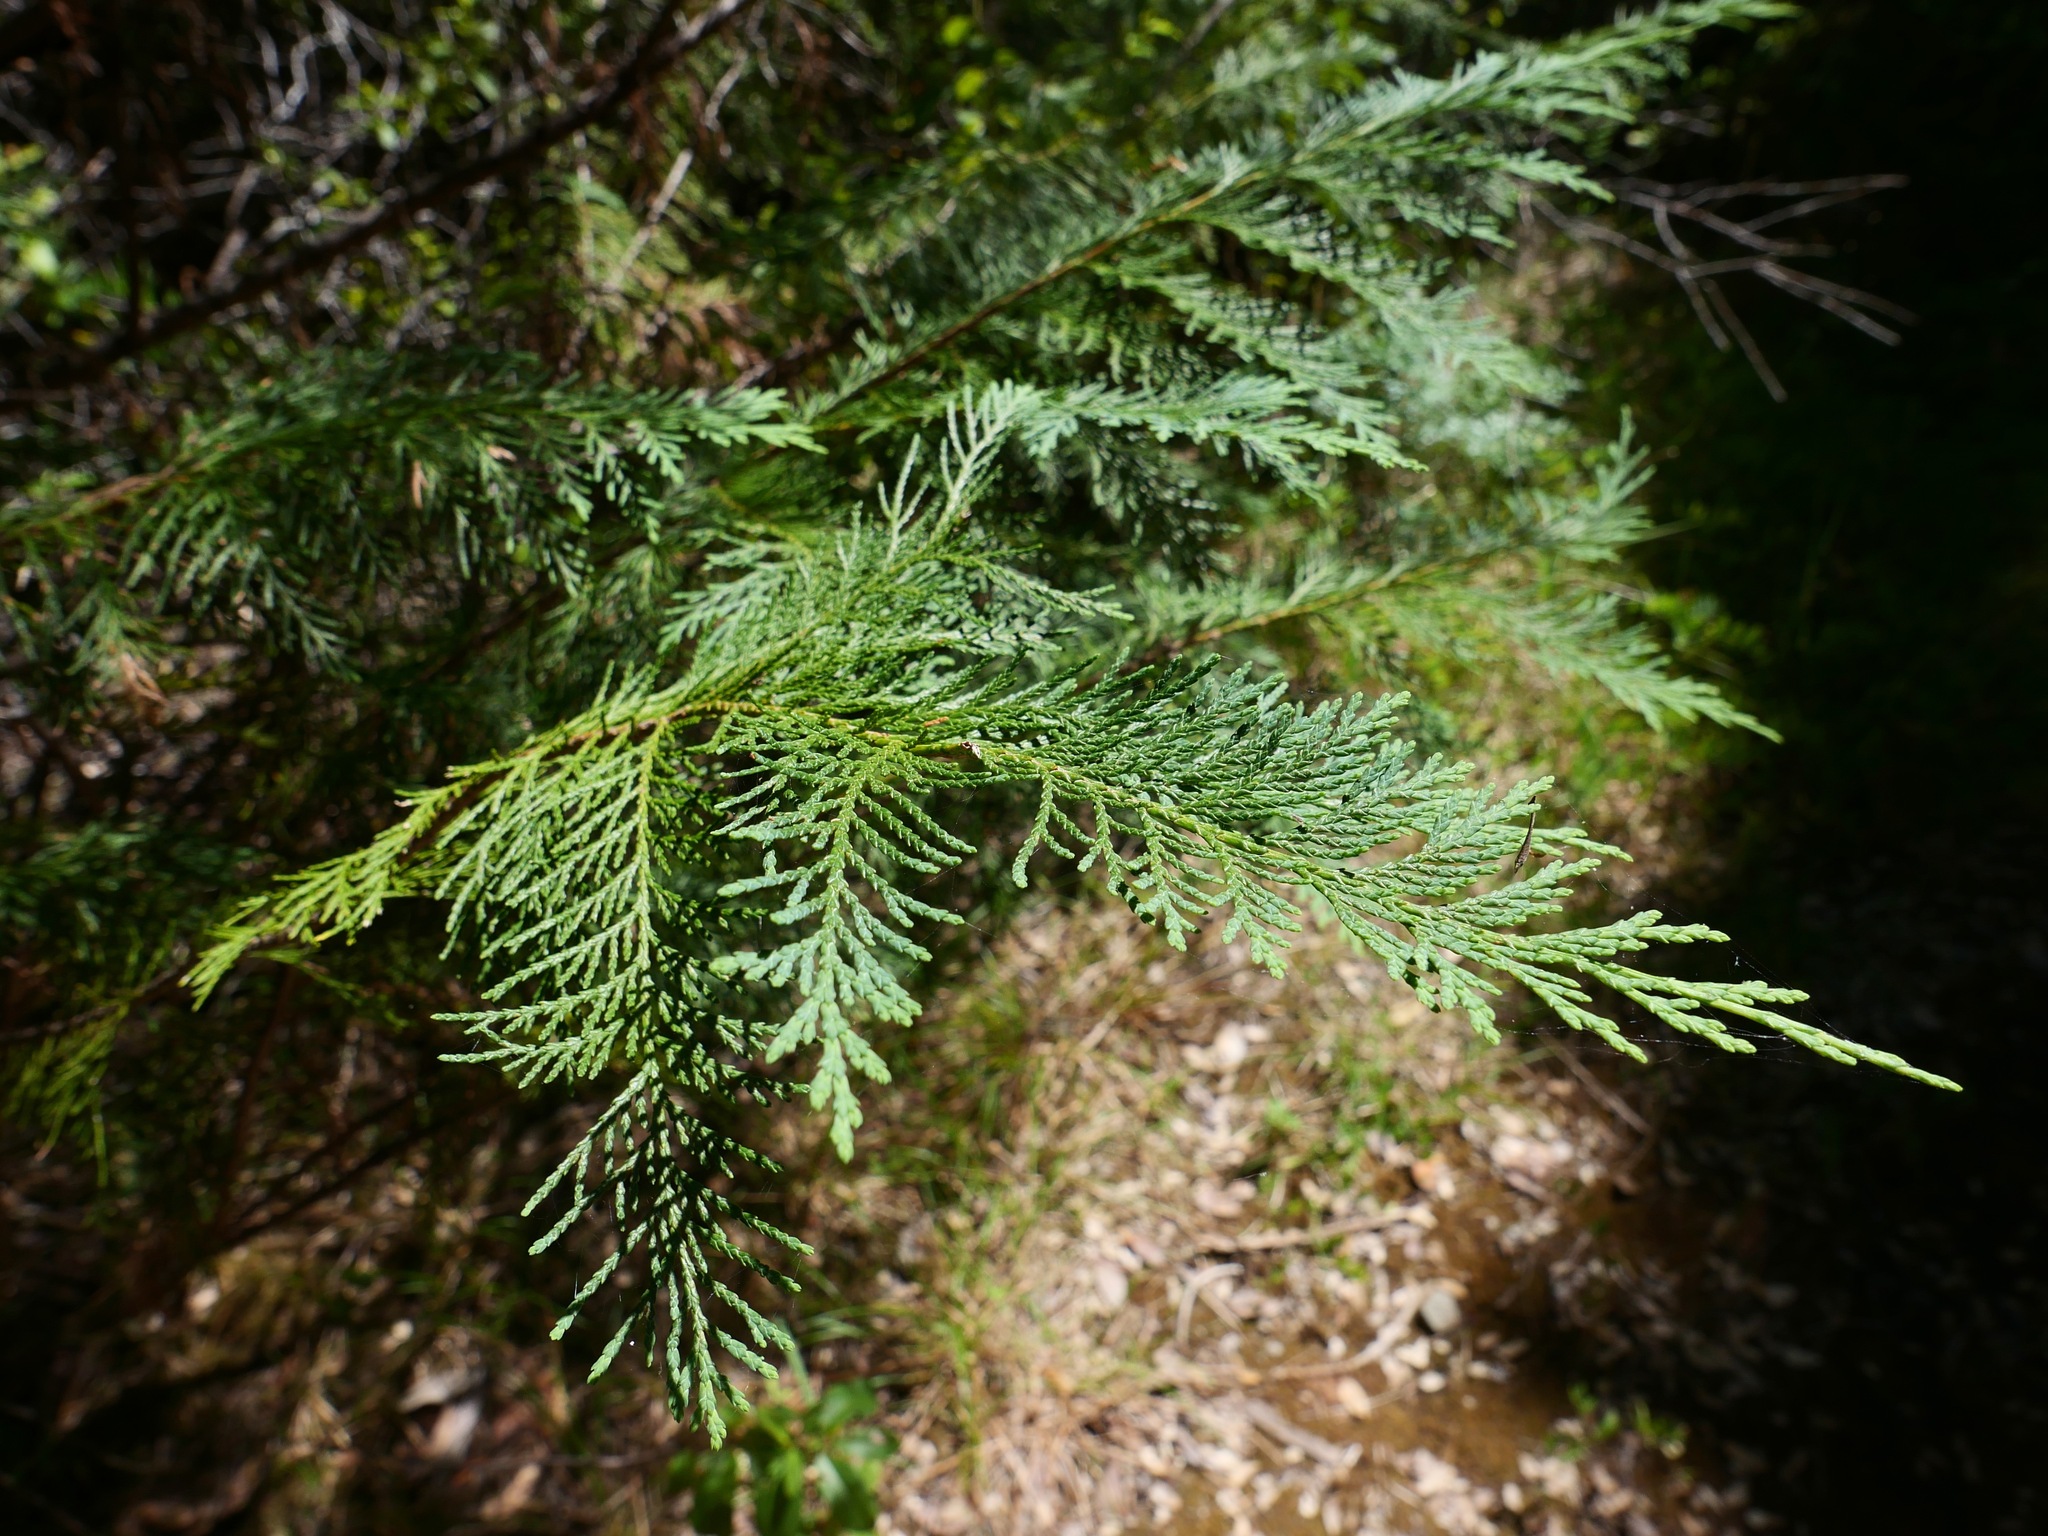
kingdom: Plantae
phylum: Tracheophyta
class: Pinopsida
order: Pinales
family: Cupressaceae
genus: Chamaecyparis
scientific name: Chamaecyparis lawsoniana
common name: Lawson's cypress
